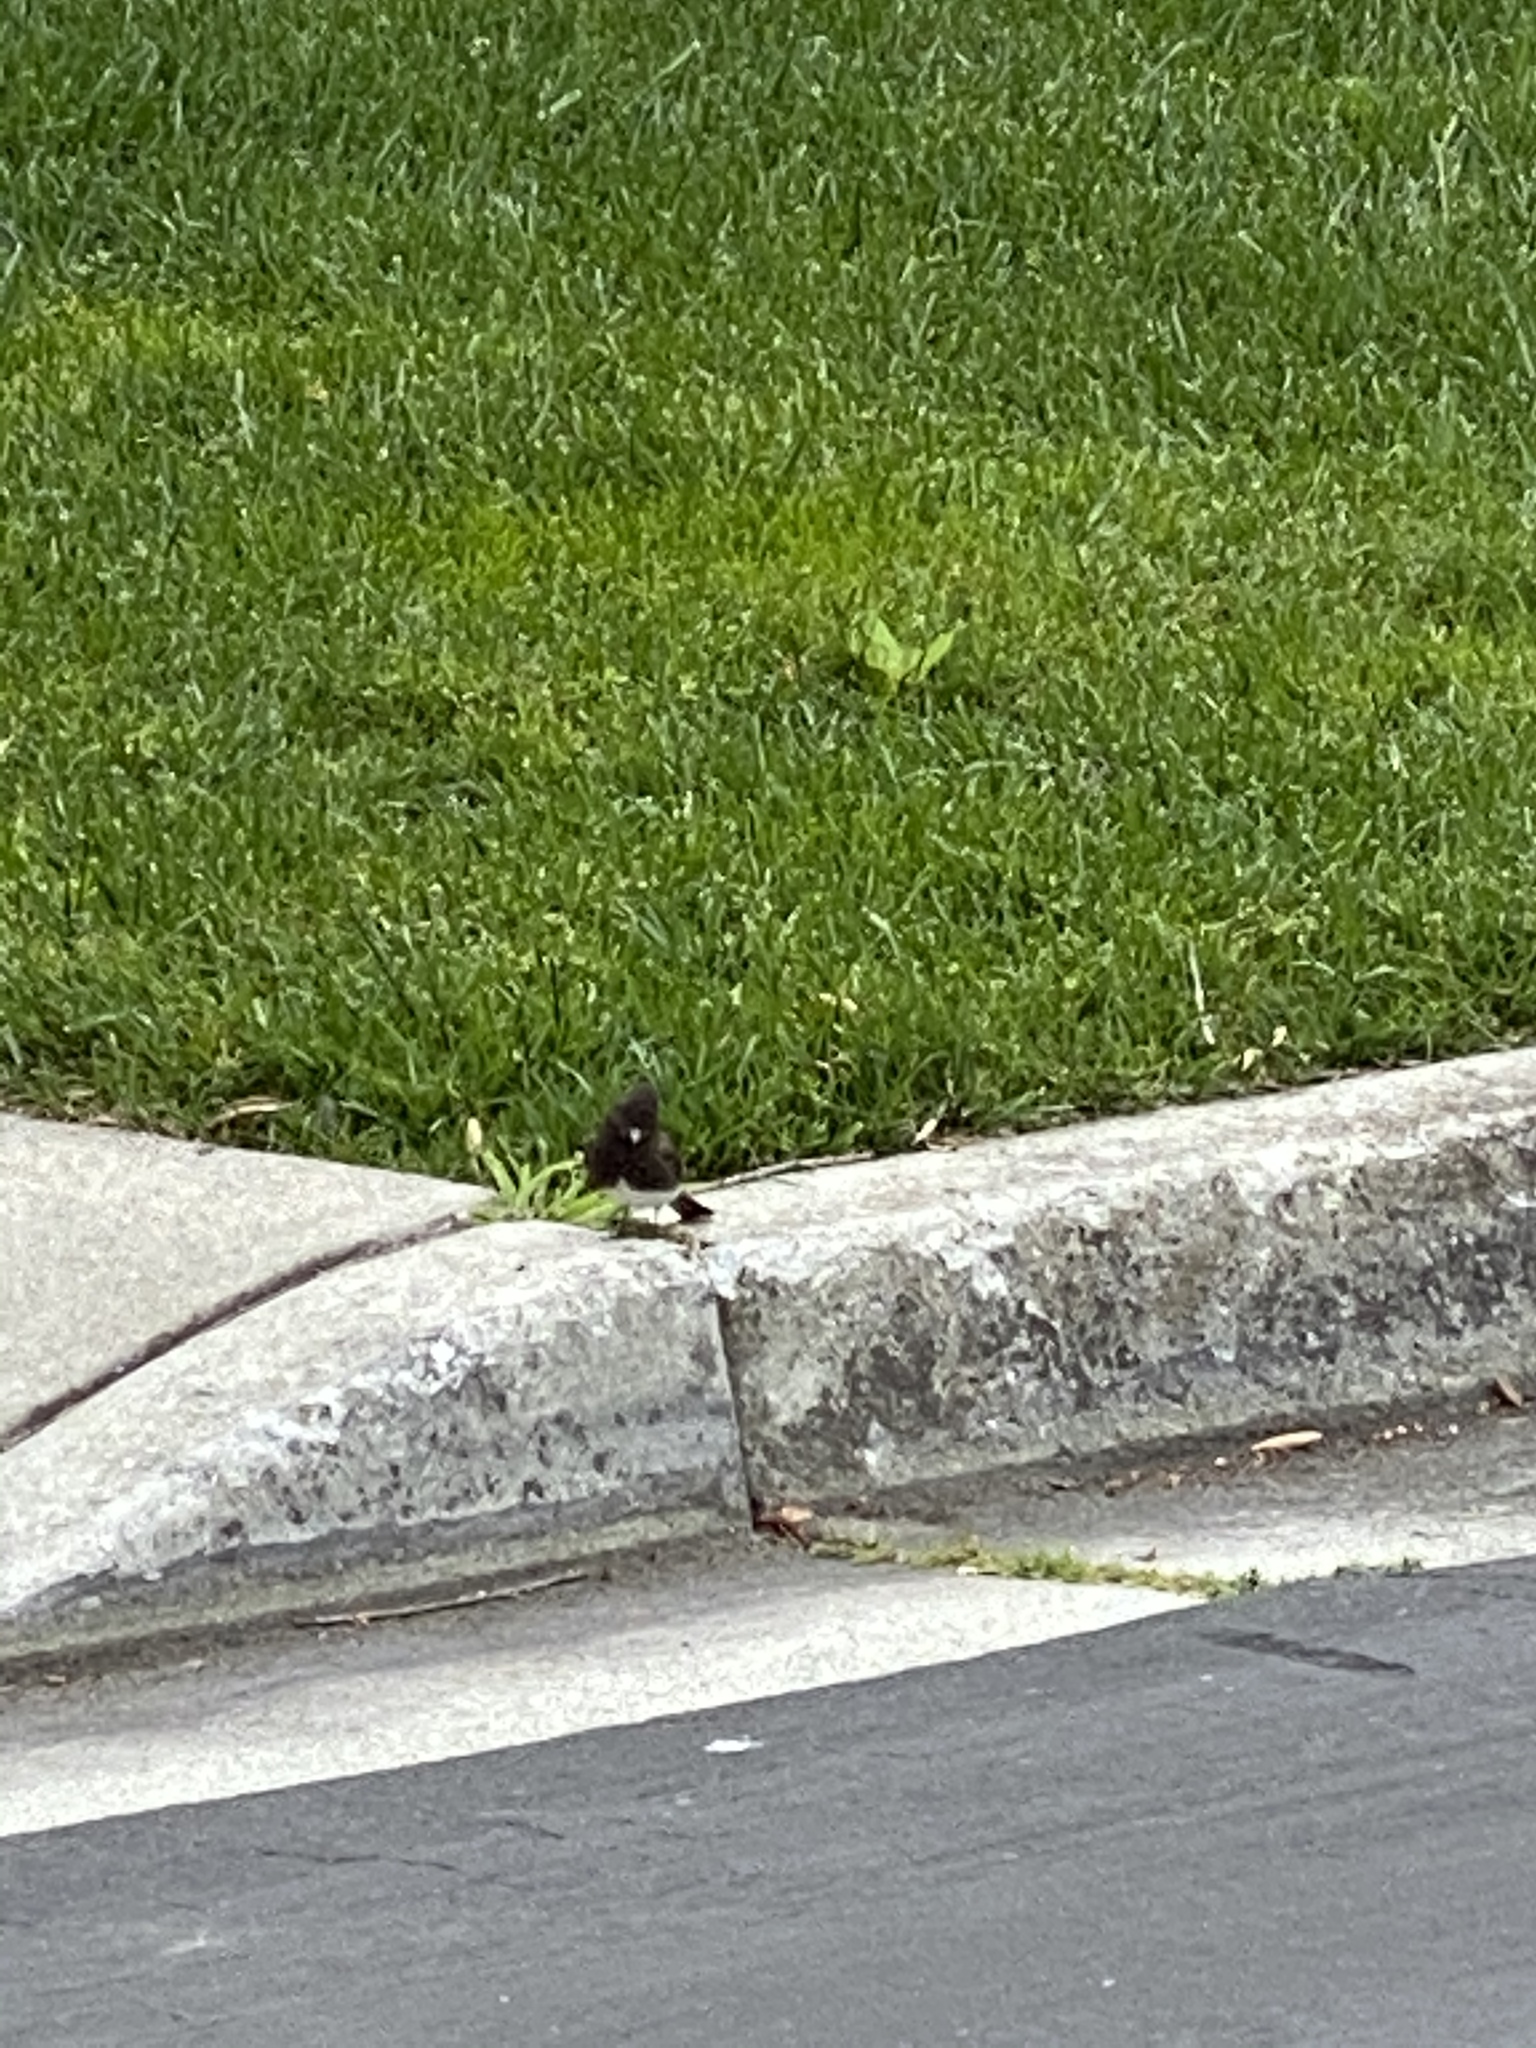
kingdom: Animalia
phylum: Chordata
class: Aves
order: Passeriformes
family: Tyrannidae
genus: Sayornis
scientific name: Sayornis nigricans
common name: Black phoebe
